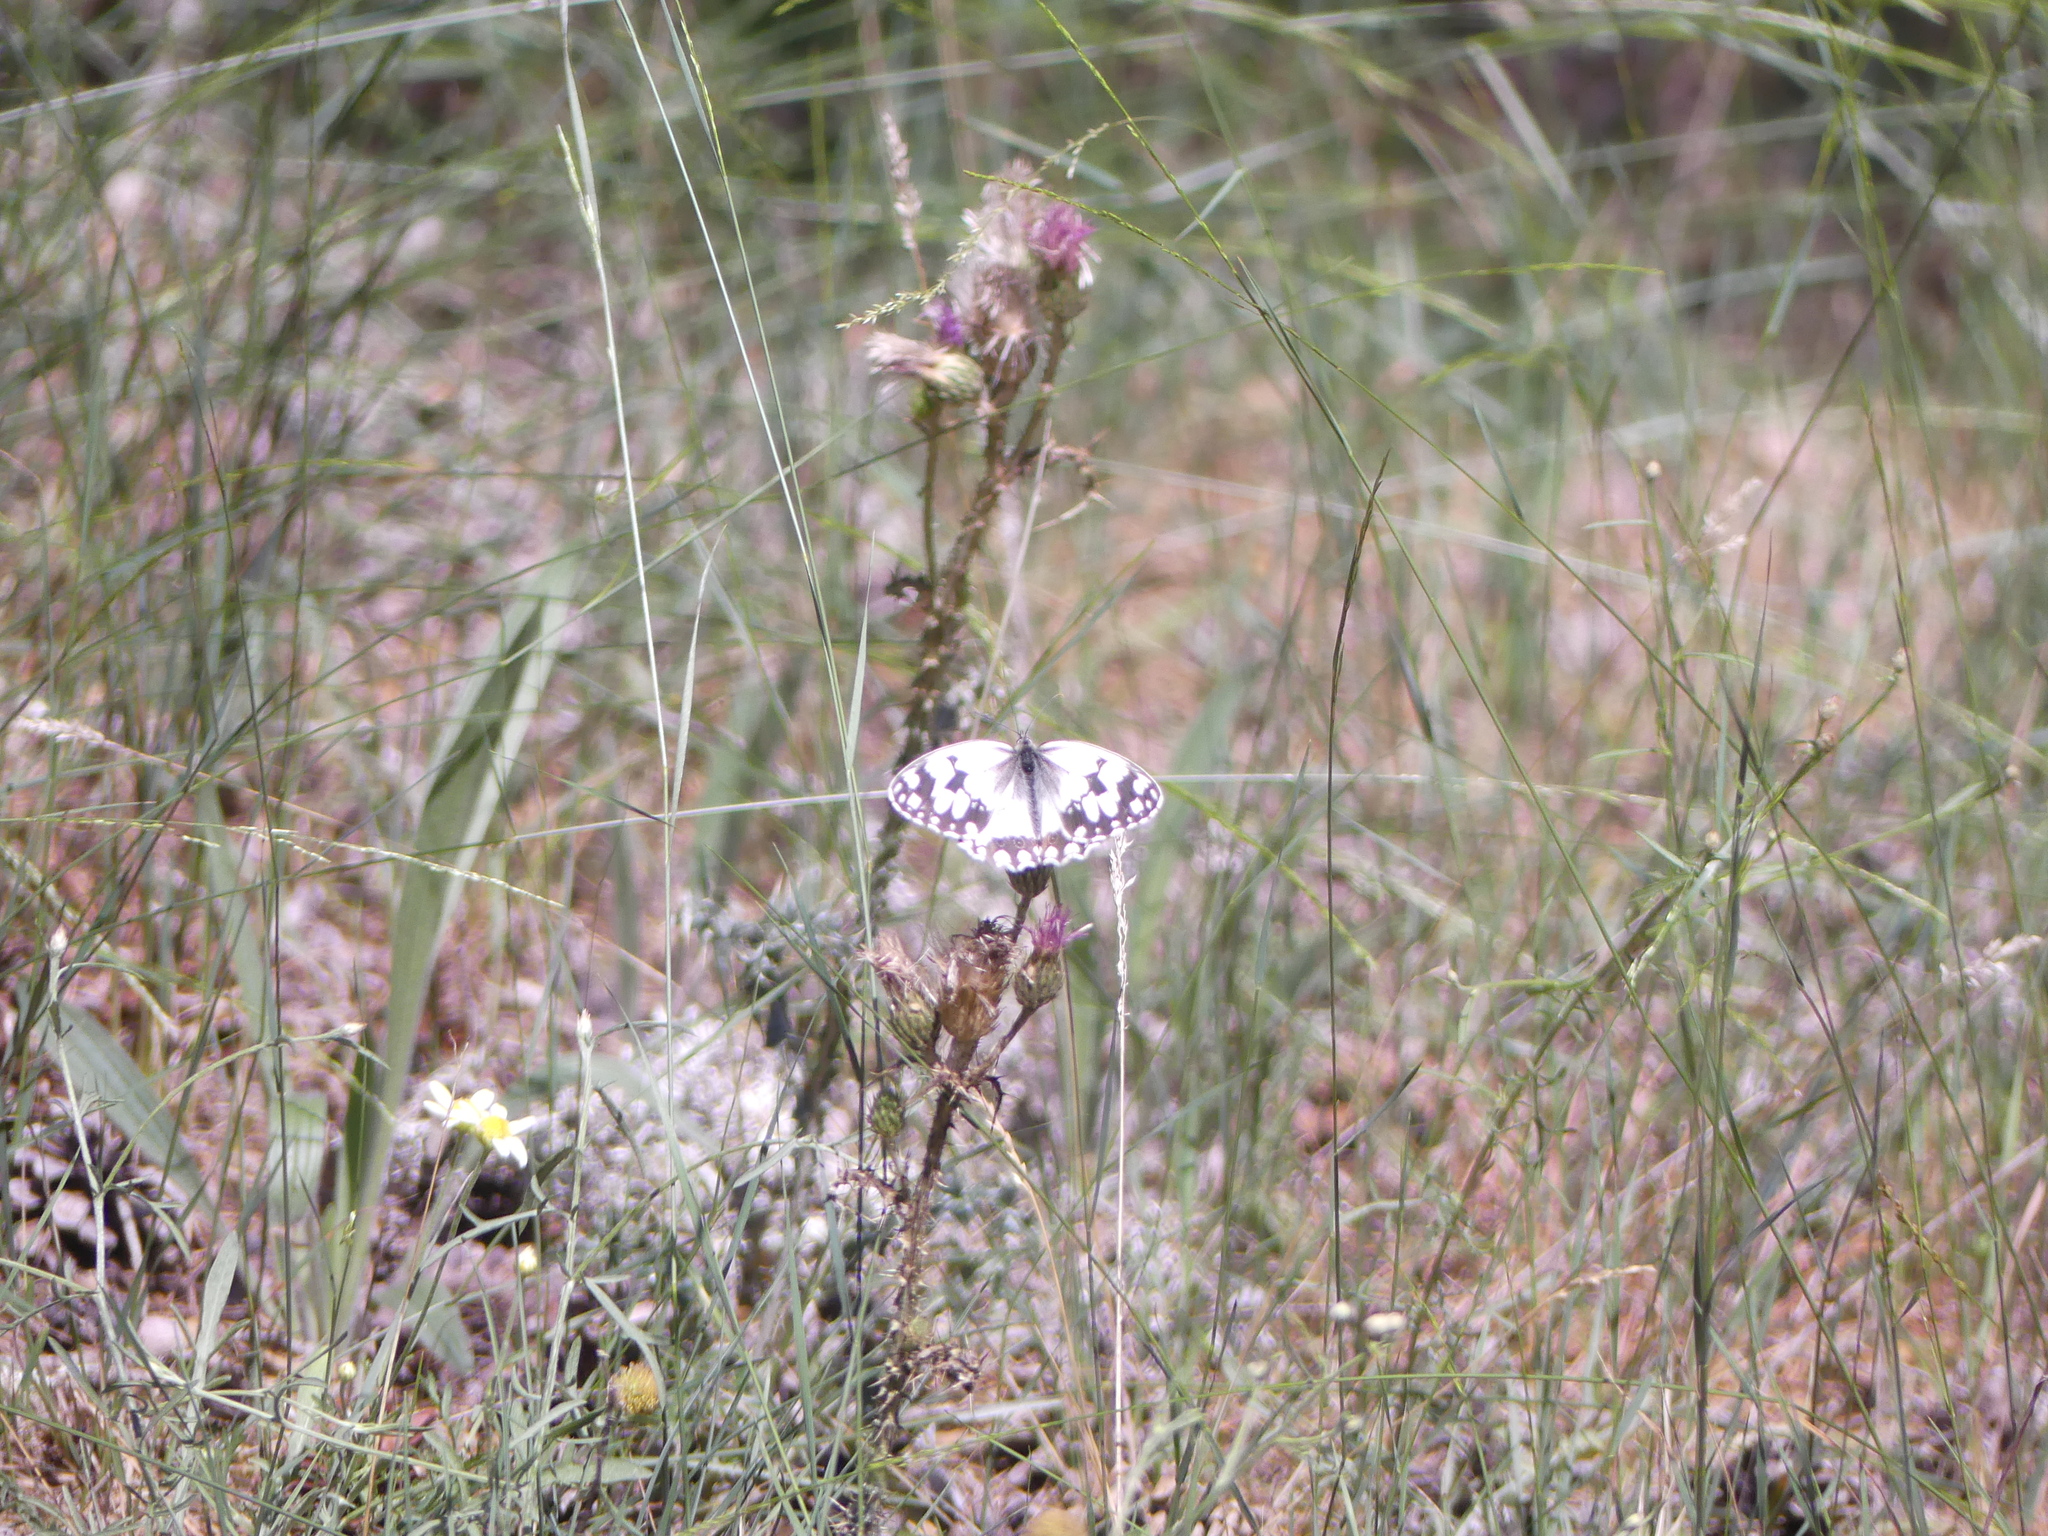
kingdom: Animalia
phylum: Arthropoda
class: Insecta
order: Lepidoptera
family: Nymphalidae
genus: Melanargia
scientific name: Melanargia lachesis
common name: Iberian marbled white
